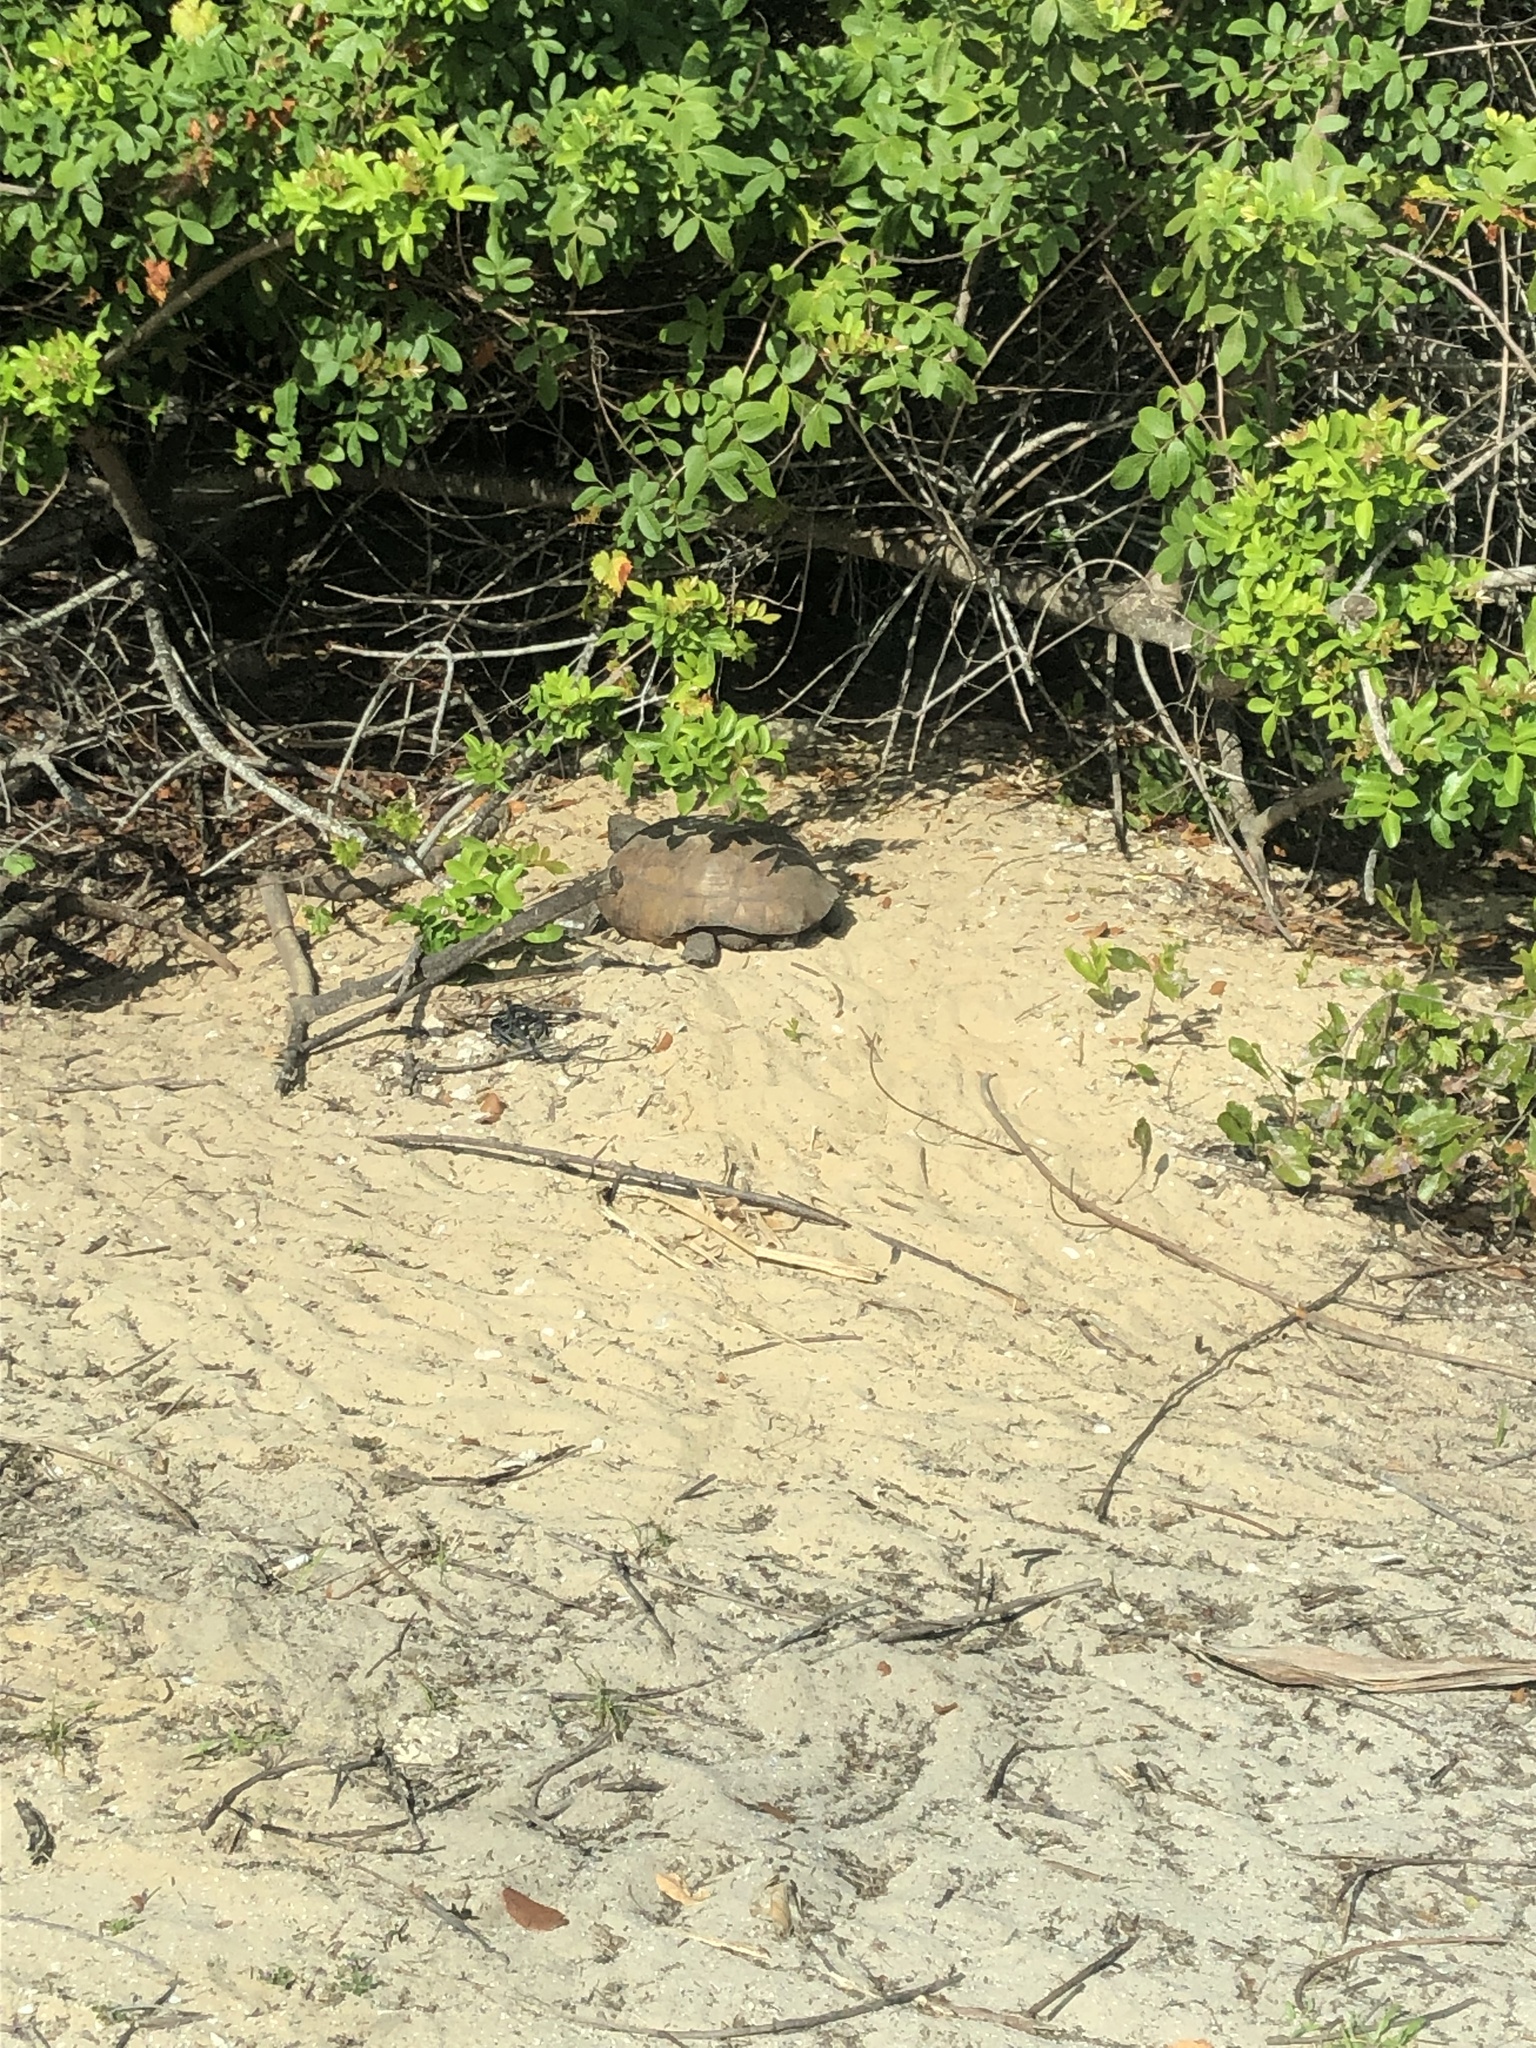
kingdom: Animalia
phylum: Chordata
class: Testudines
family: Testudinidae
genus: Gopherus
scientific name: Gopherus polyphemus
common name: Florida gopher tortoise
